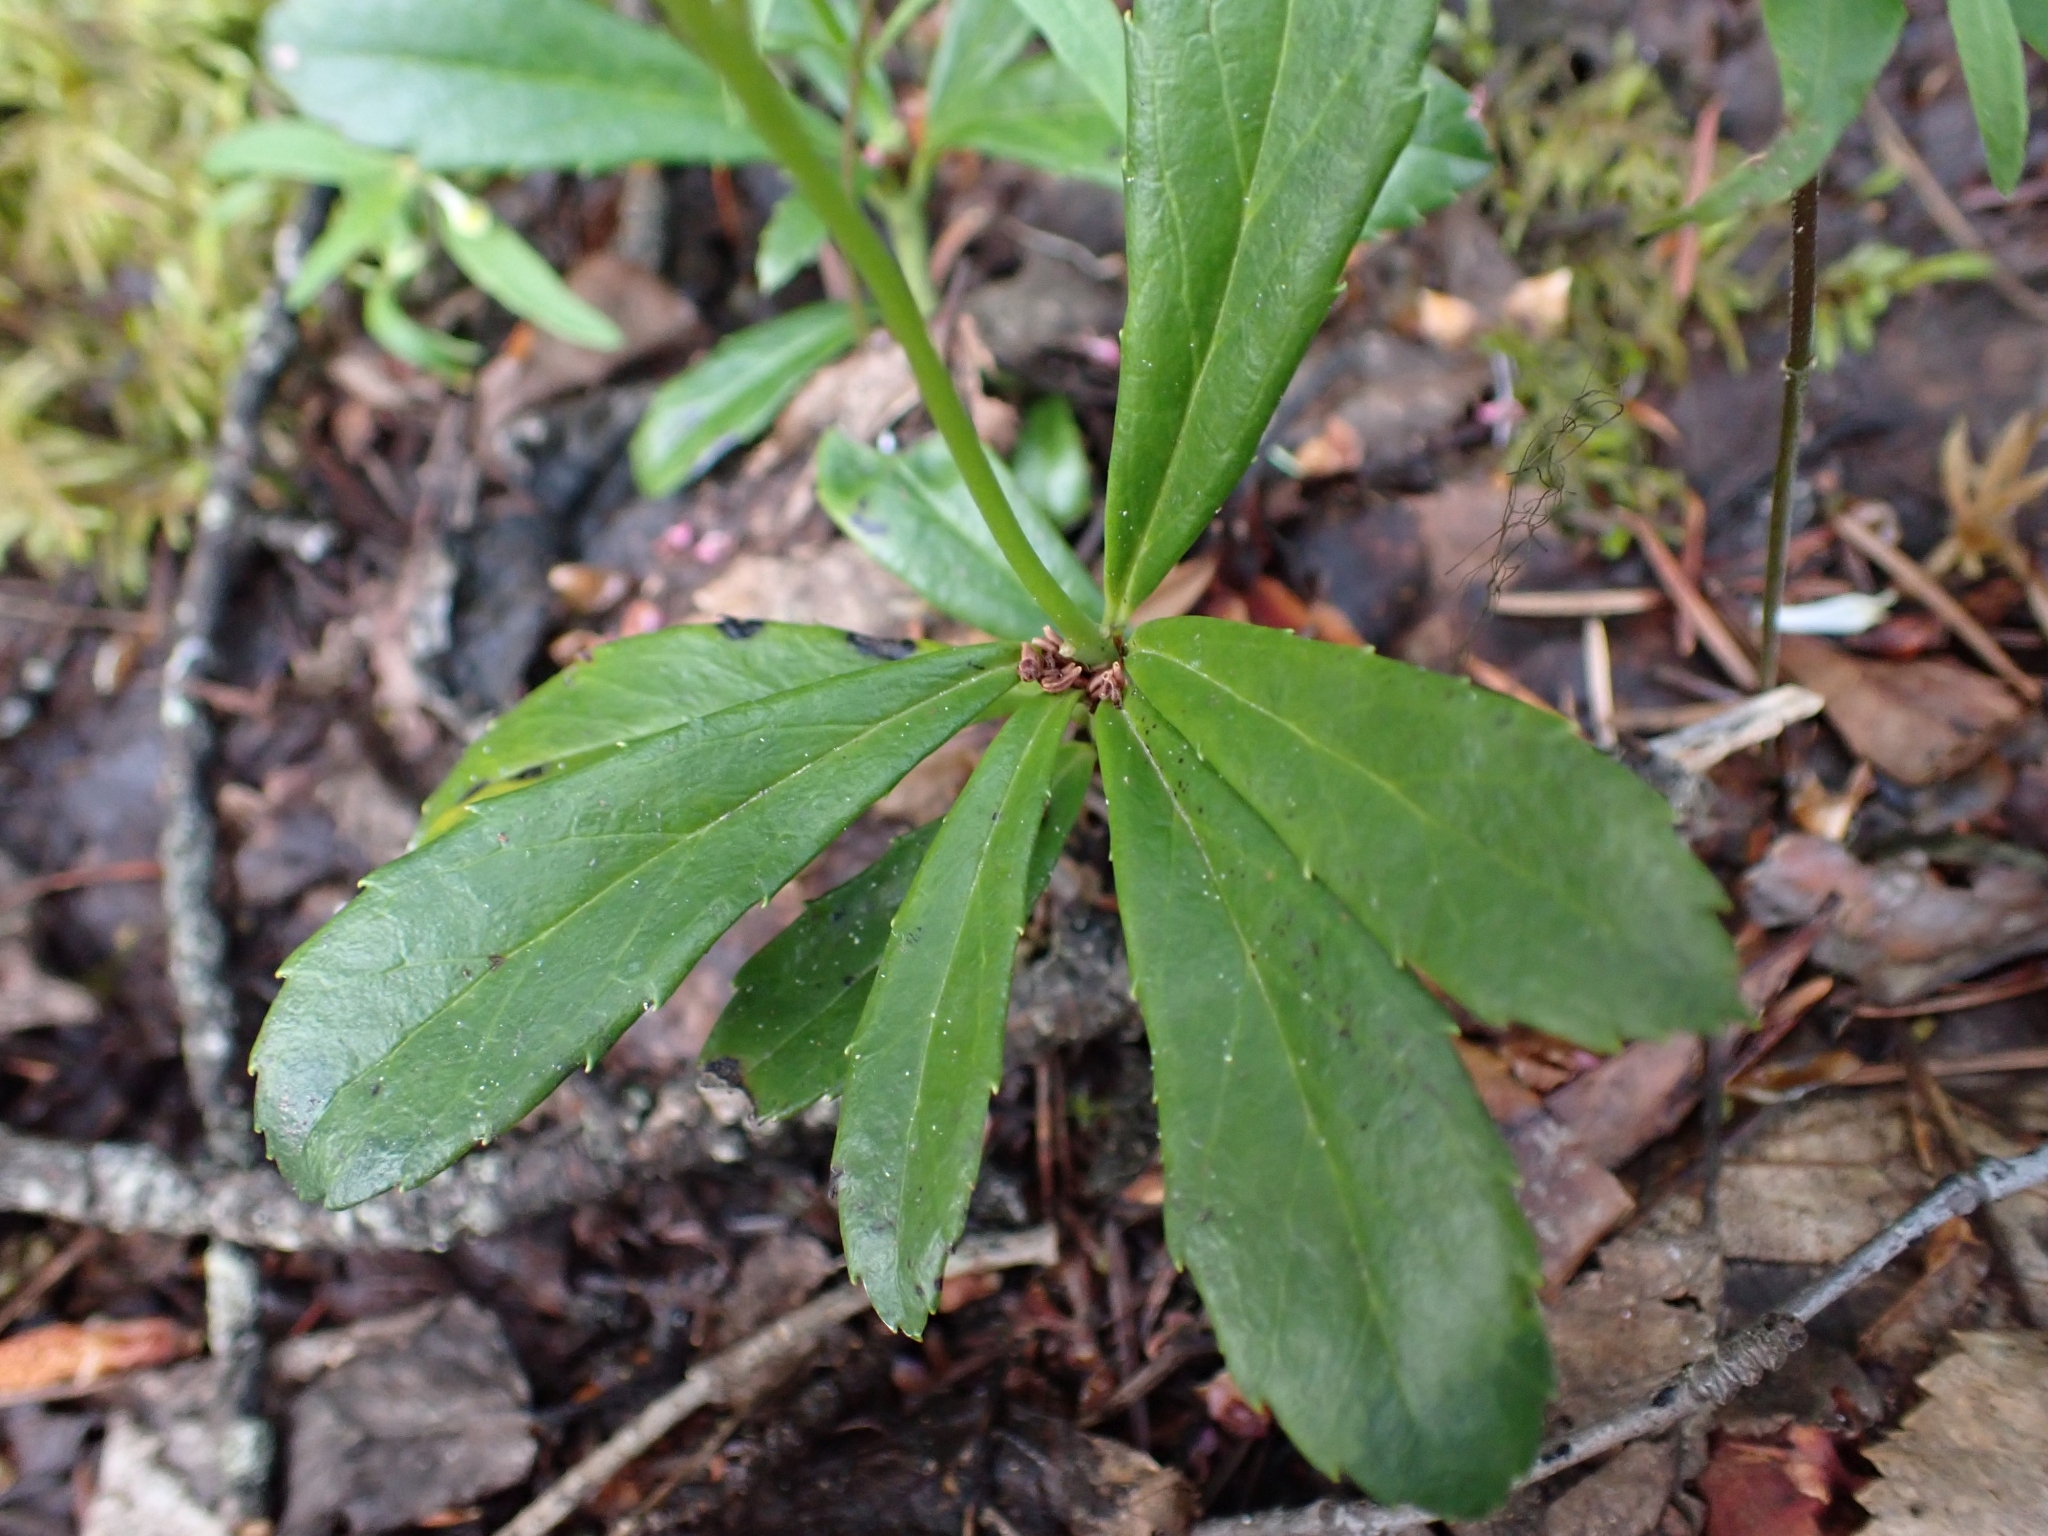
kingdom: Plantae
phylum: Tracheophyta
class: Magnoliopsida
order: Ericales
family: Ericaceae
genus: Chimaphila
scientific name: Chimaphila umbellata
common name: Pipsissewa
